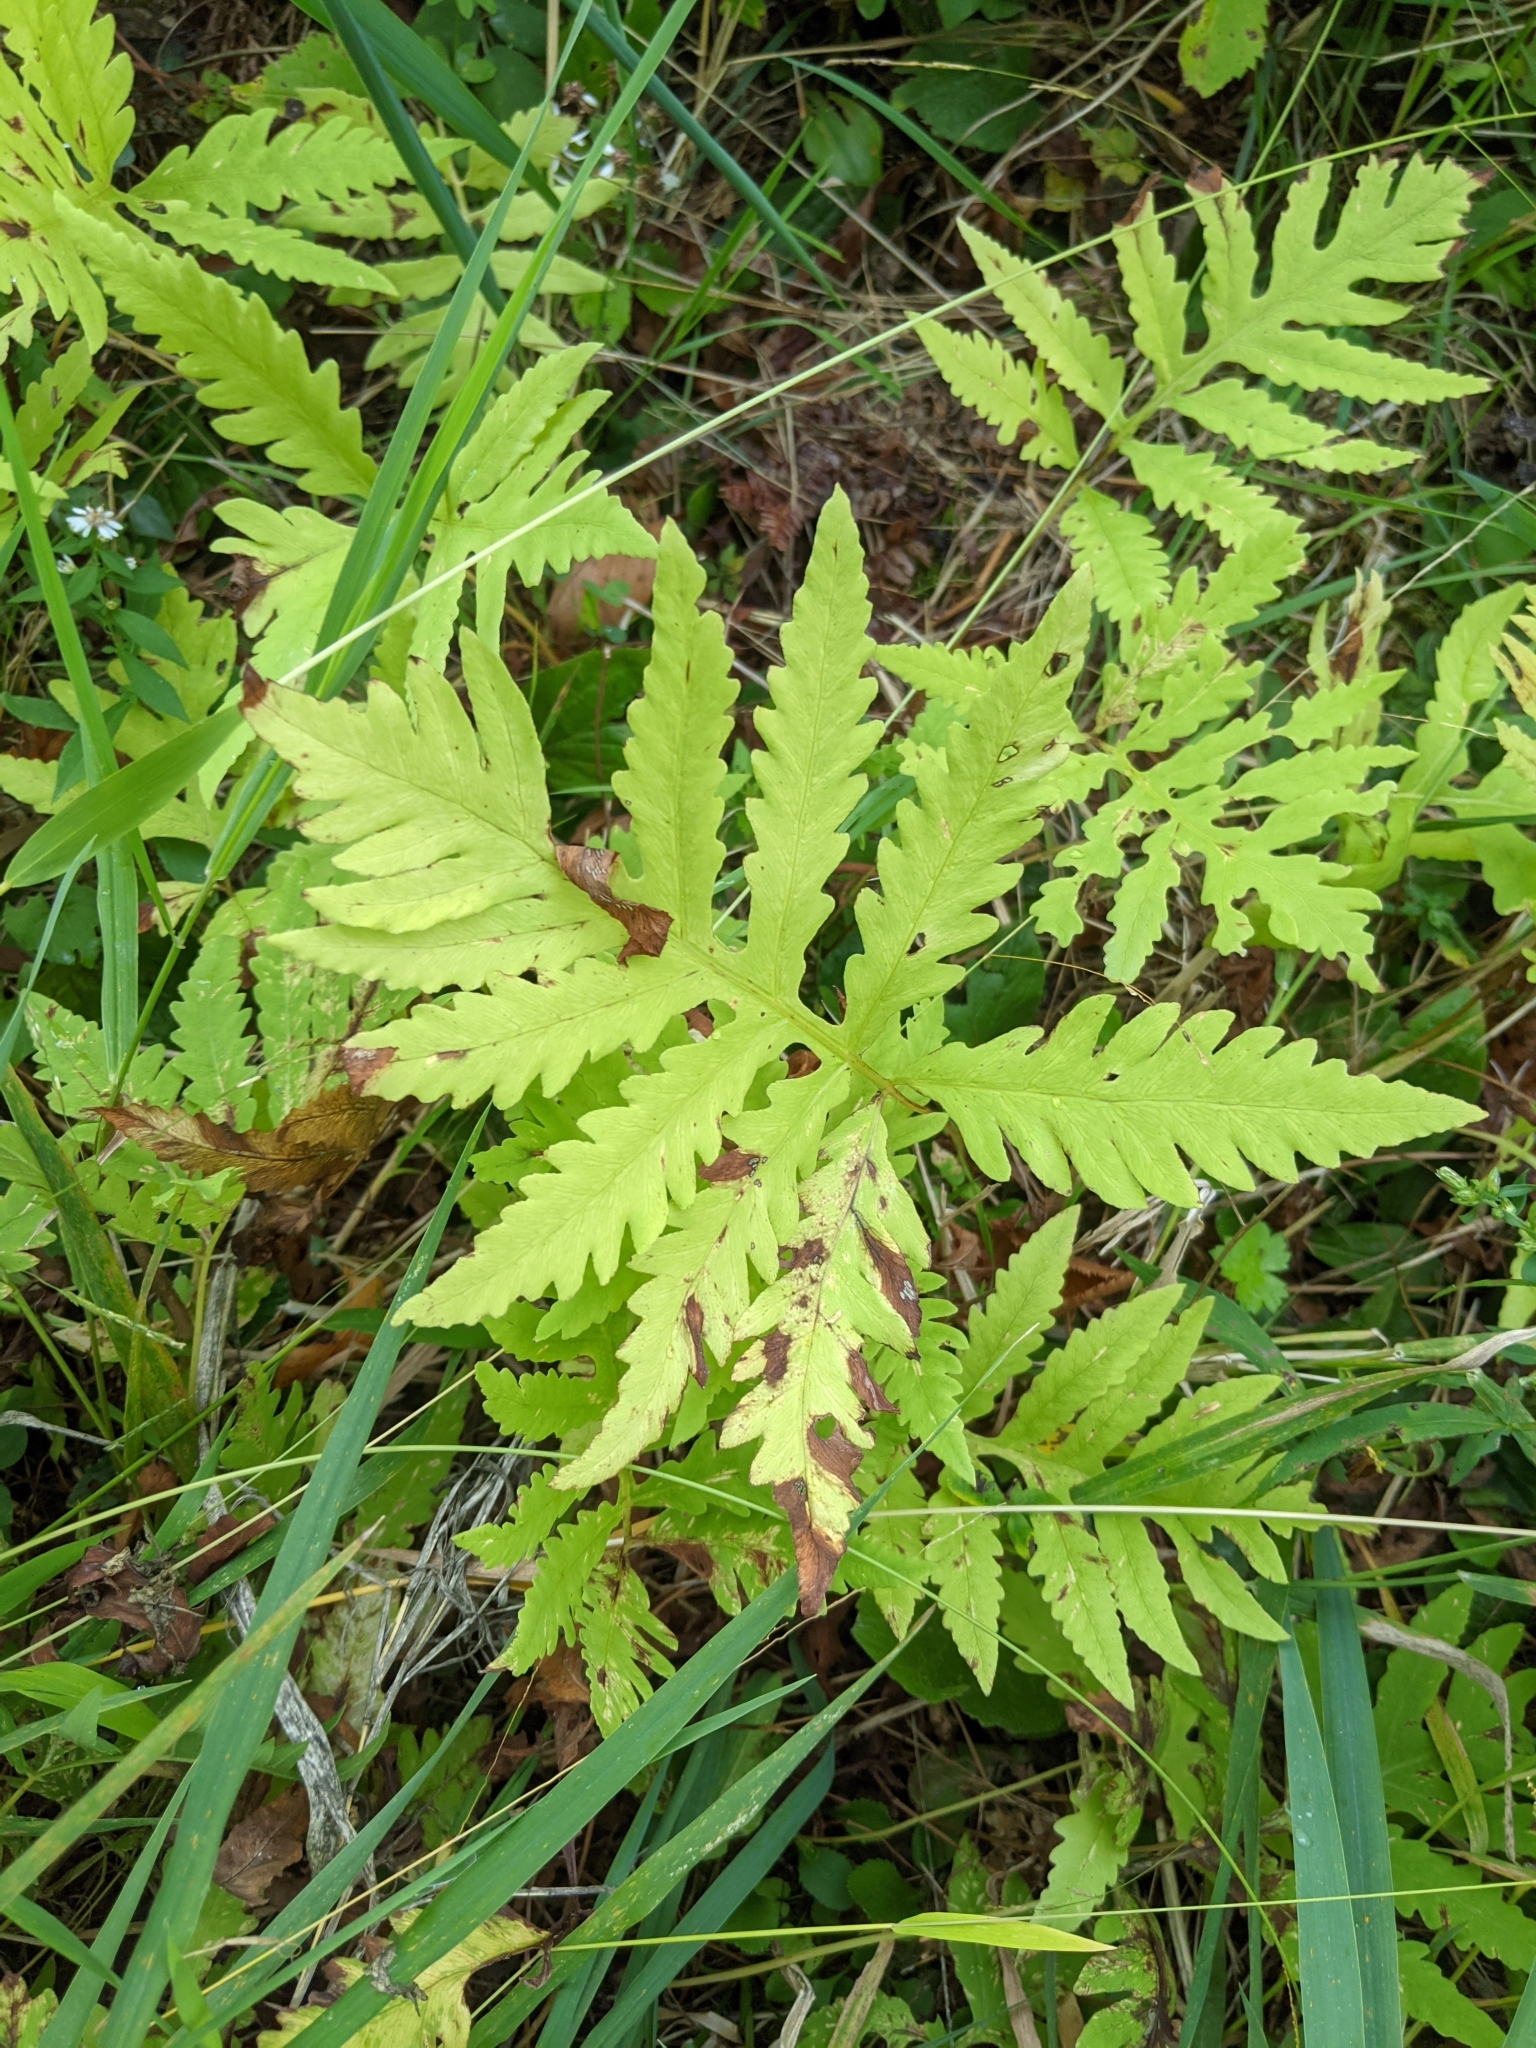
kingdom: Plantae
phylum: Tracheophyta
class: Polypodiopsida
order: Polypodiales
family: Onocleaceae
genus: Onoclea
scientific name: Onoclea sensibilis
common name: Sensitive fern
